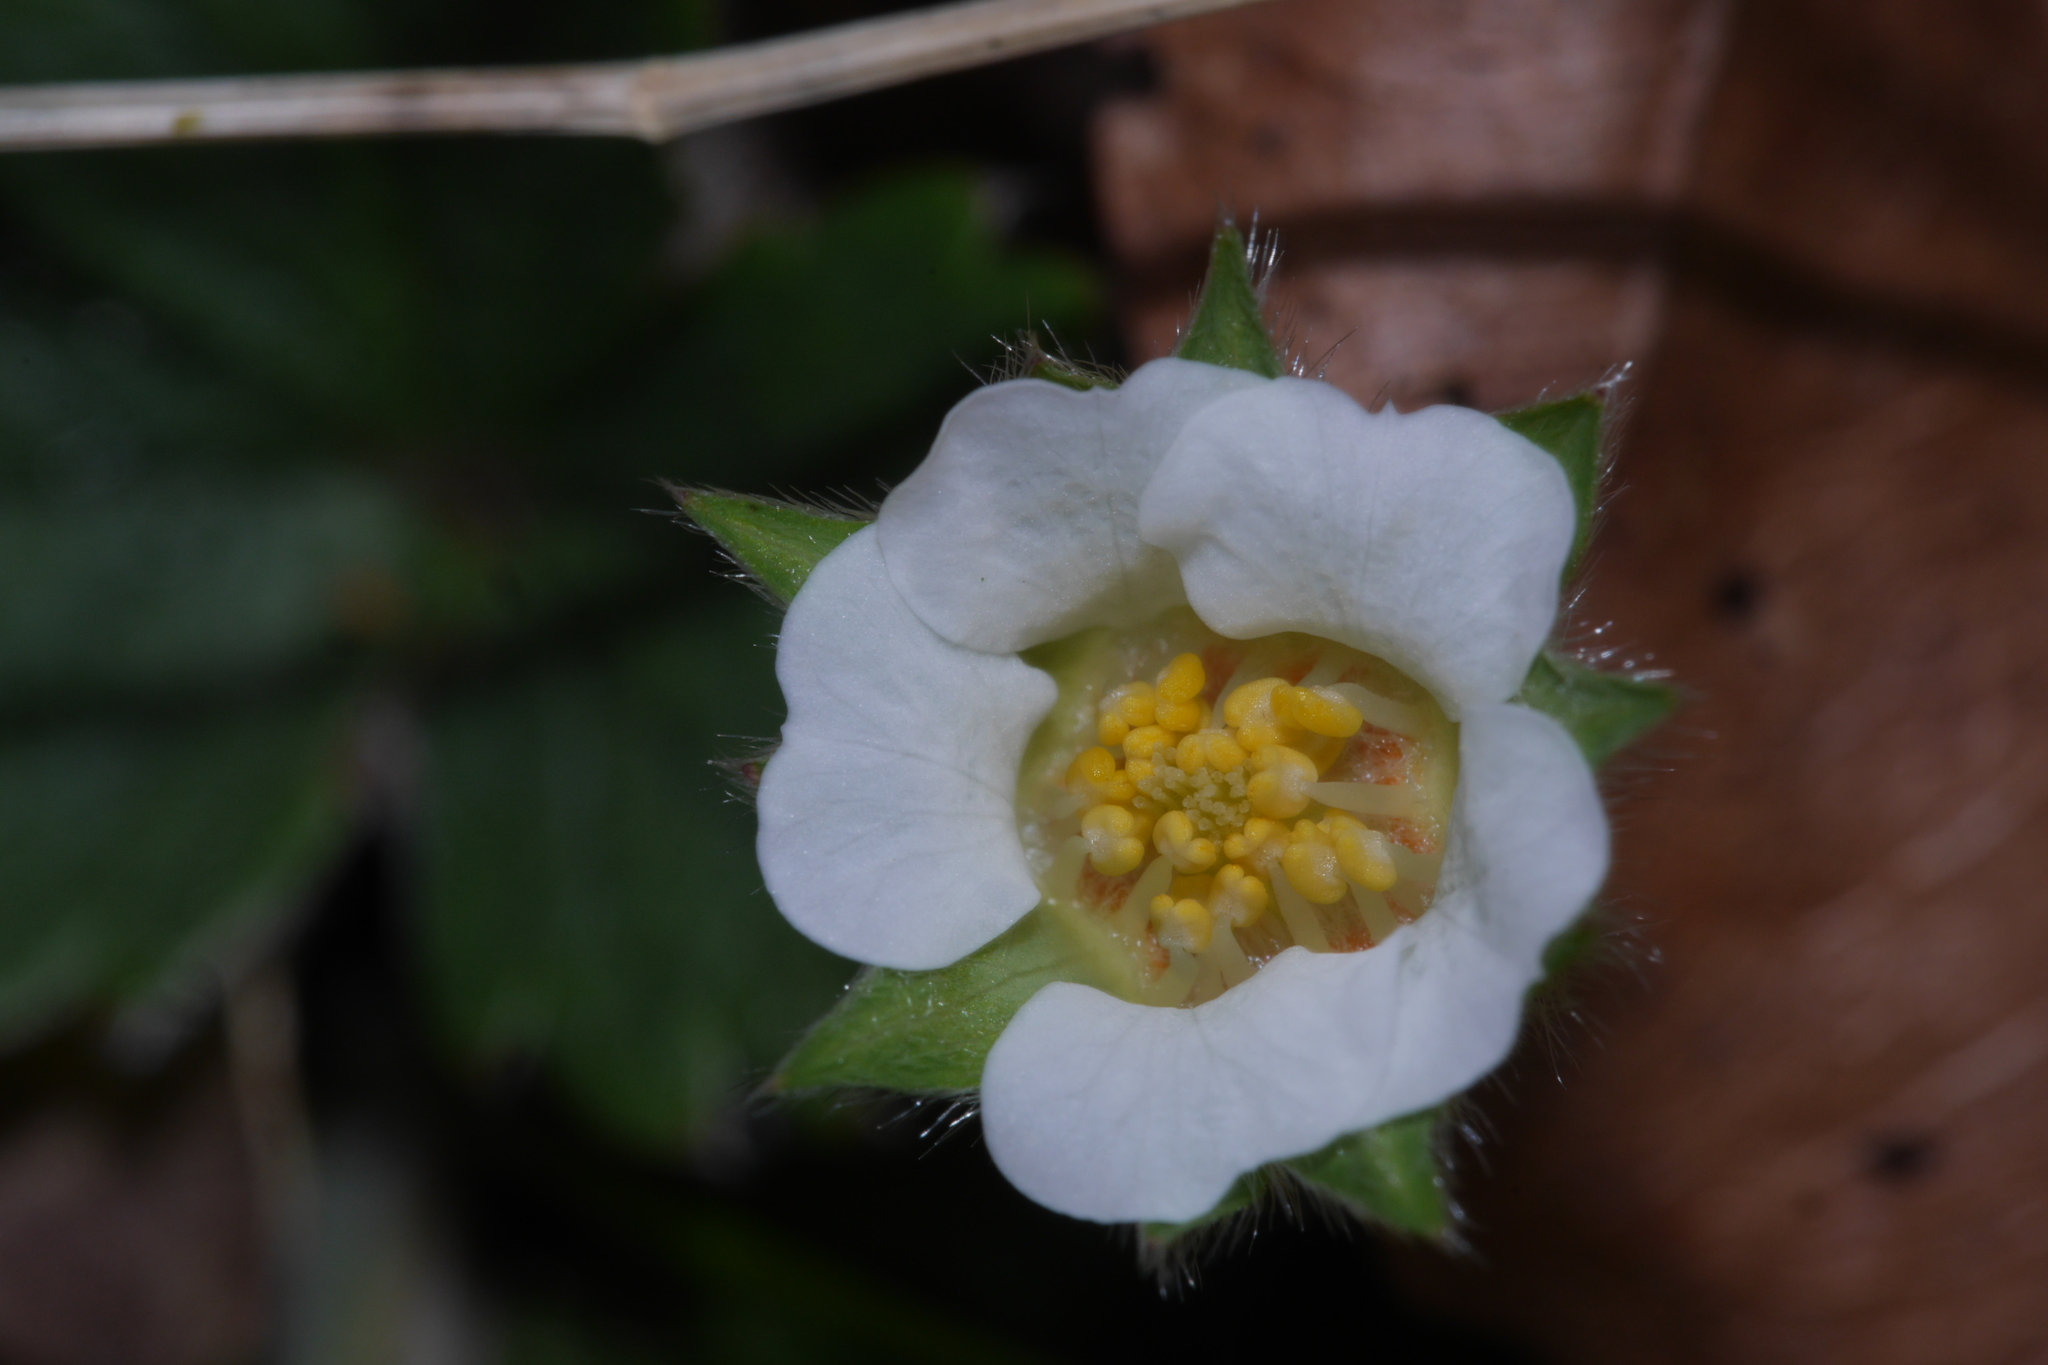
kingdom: Plantae
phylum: Tracheophyta
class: Magnoliopsida
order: Rosales
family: Rosaceae
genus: Potentilla
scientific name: Potentilla sterilis
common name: Barren strawberry
